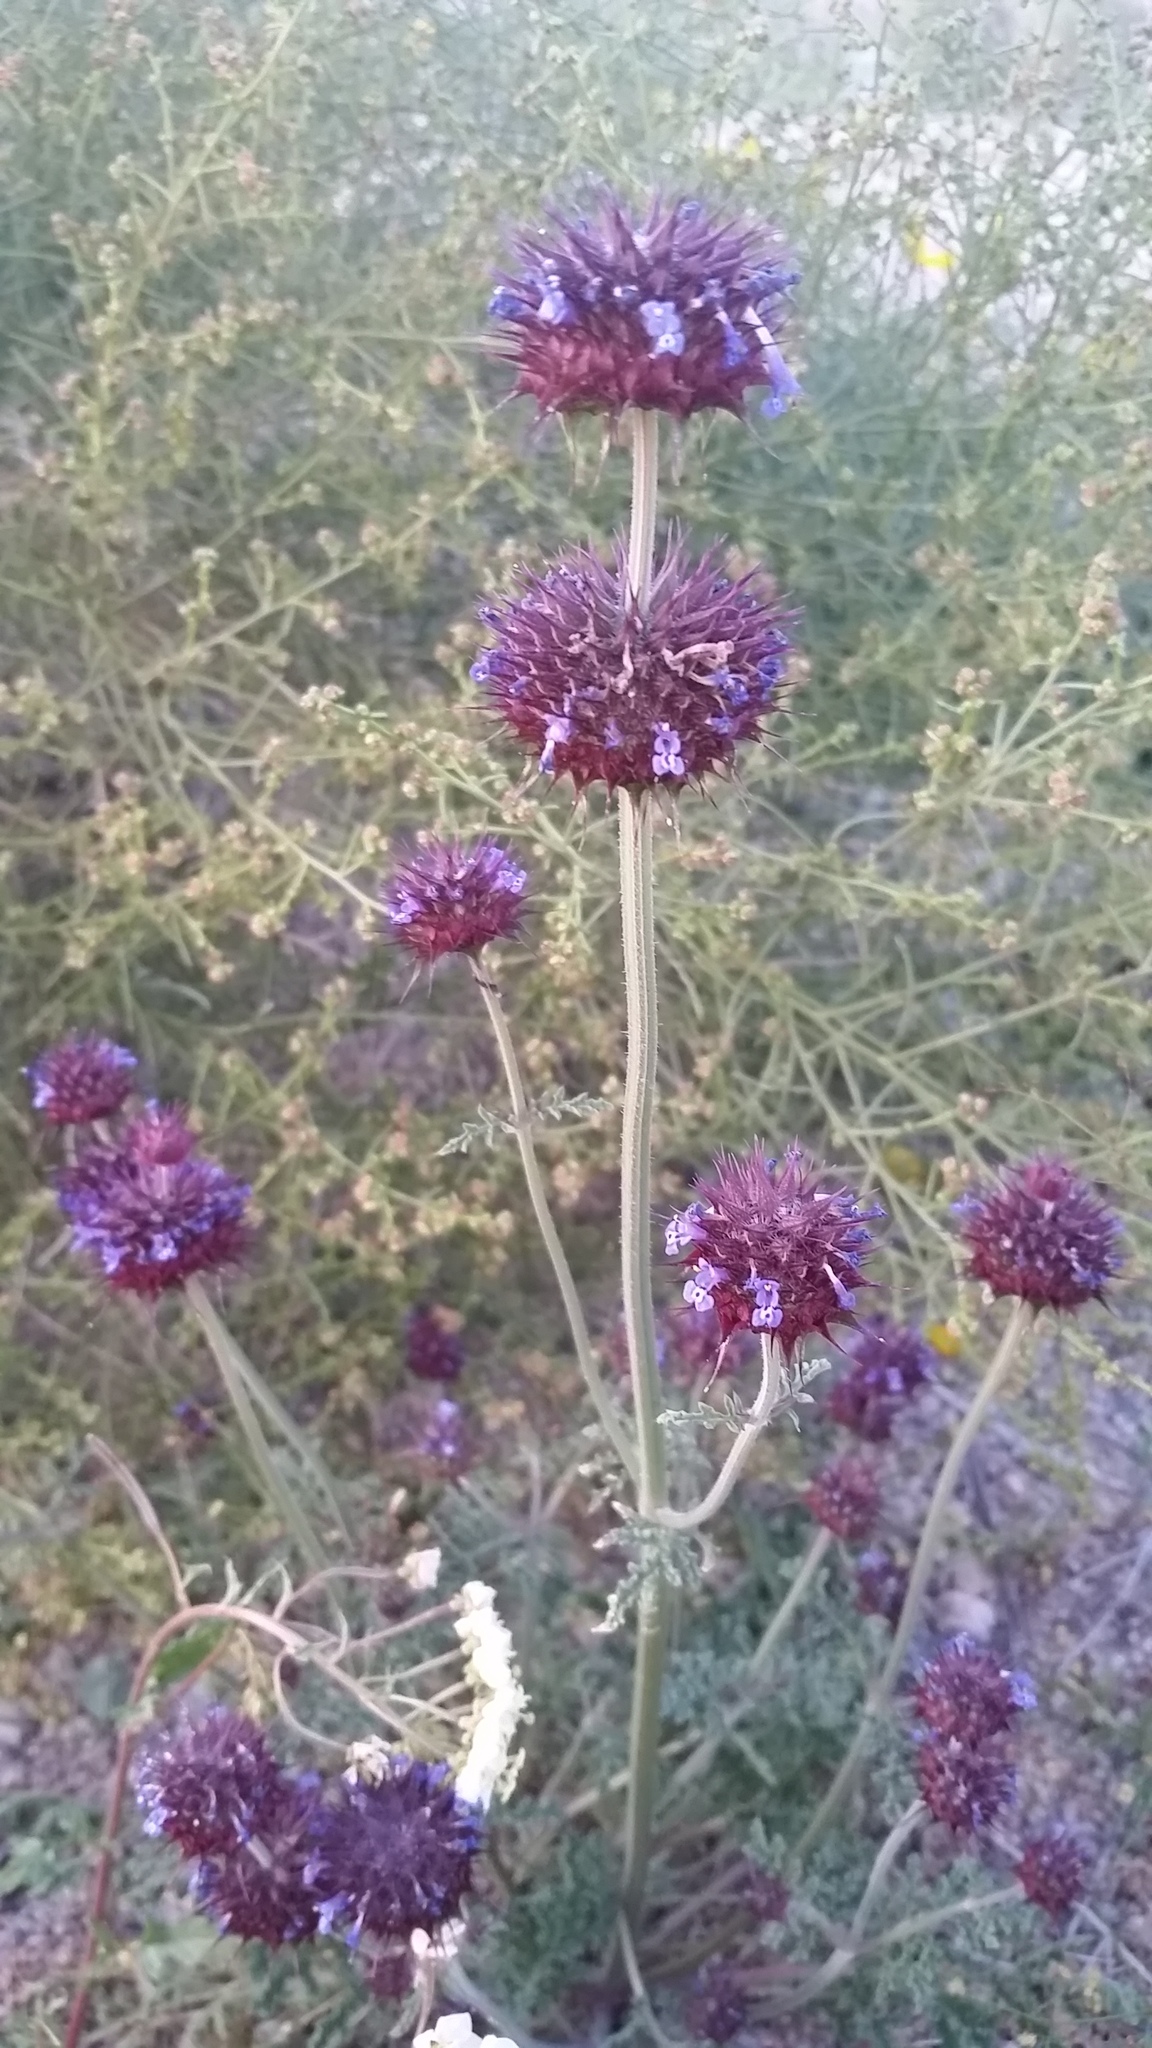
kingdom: Plantae
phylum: Tracheophyta
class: Magnoliopsida
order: Lamiales
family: Lamiaceae
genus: Salvia
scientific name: Salvia columbariae
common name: Chia
